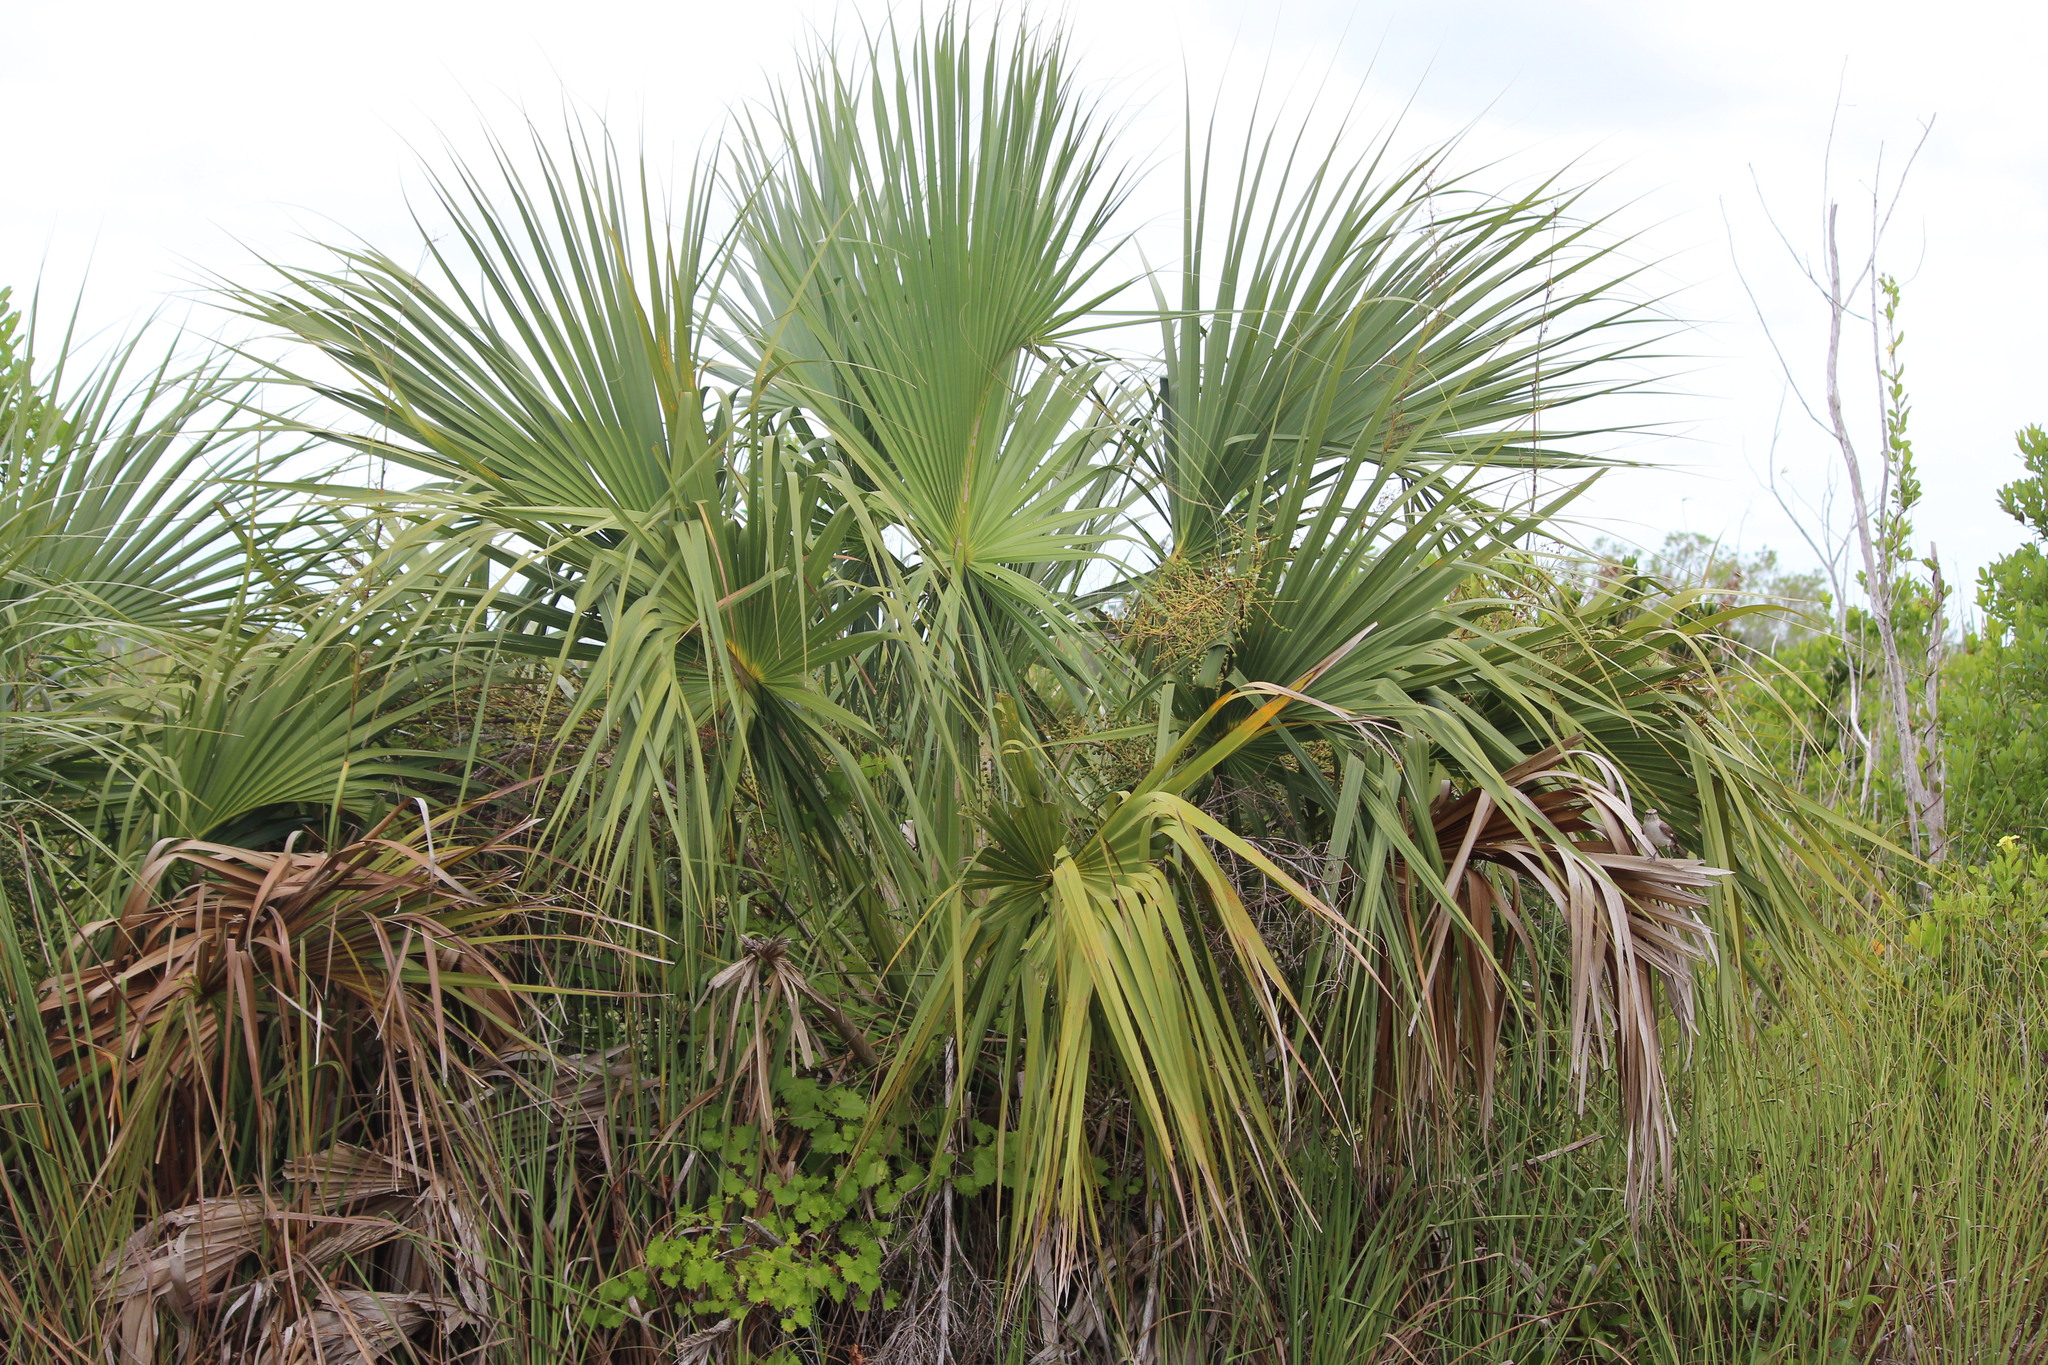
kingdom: Plantae
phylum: Tracheophyta
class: Liliopsida
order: Arecales
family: Arecaceae
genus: Sabal
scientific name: Sabal palmetto
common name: Blue palmetto
